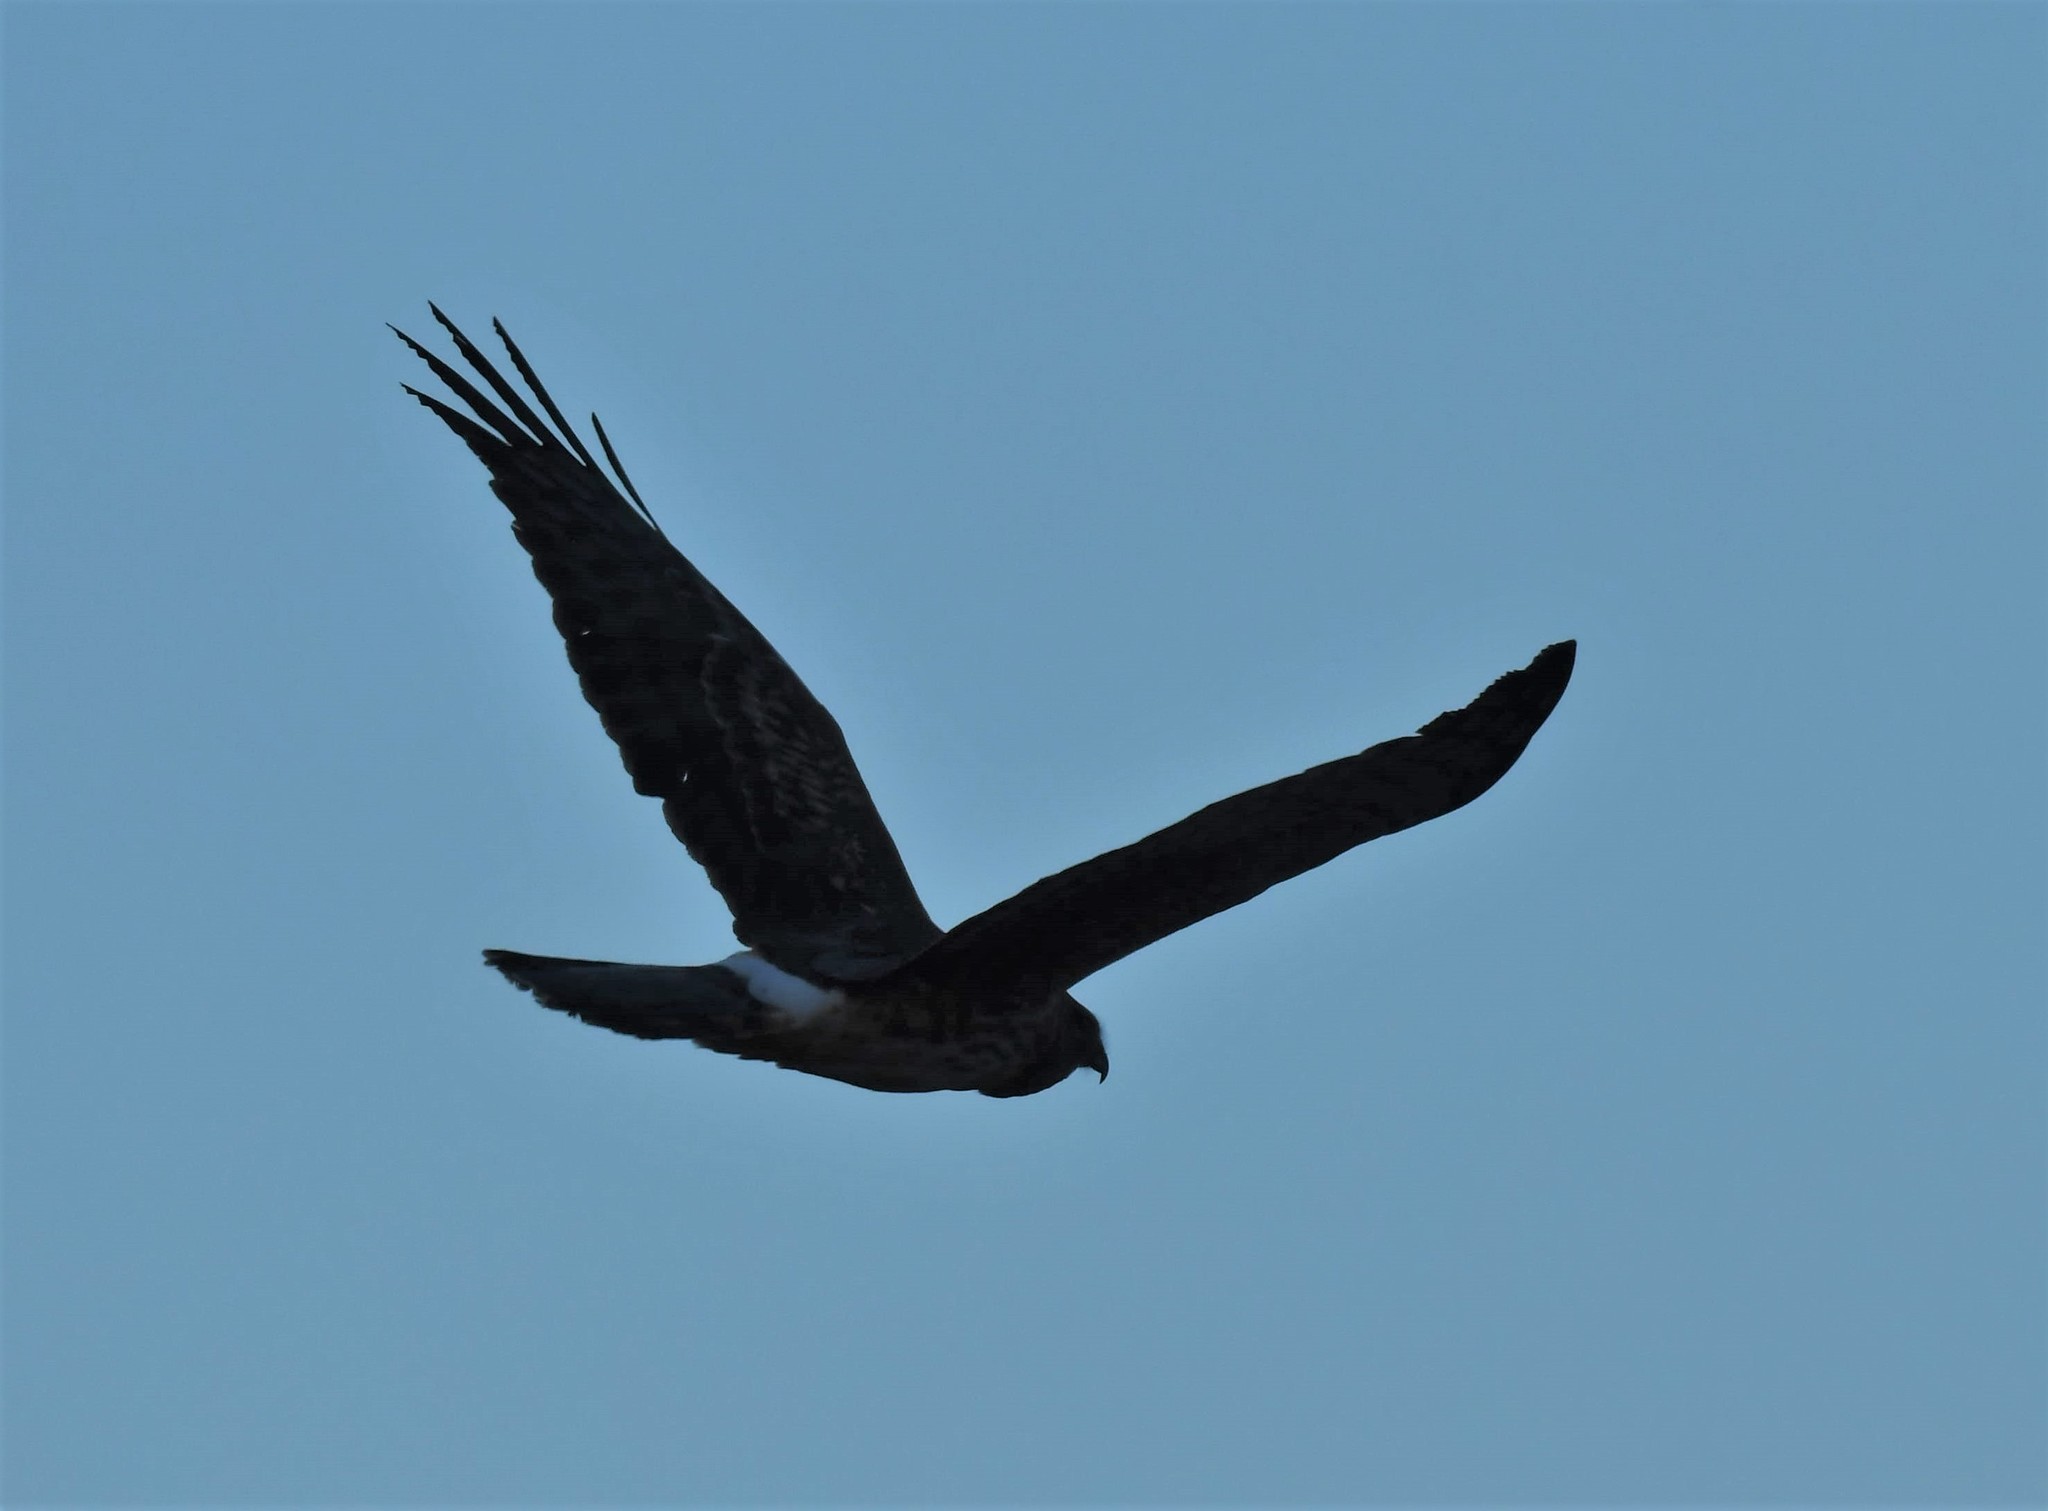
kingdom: Animalia
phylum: Chordata
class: Aves
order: Accipitriformes
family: Accipitridae
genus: Circus
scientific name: Circus cyaneus
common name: Hen harrier
